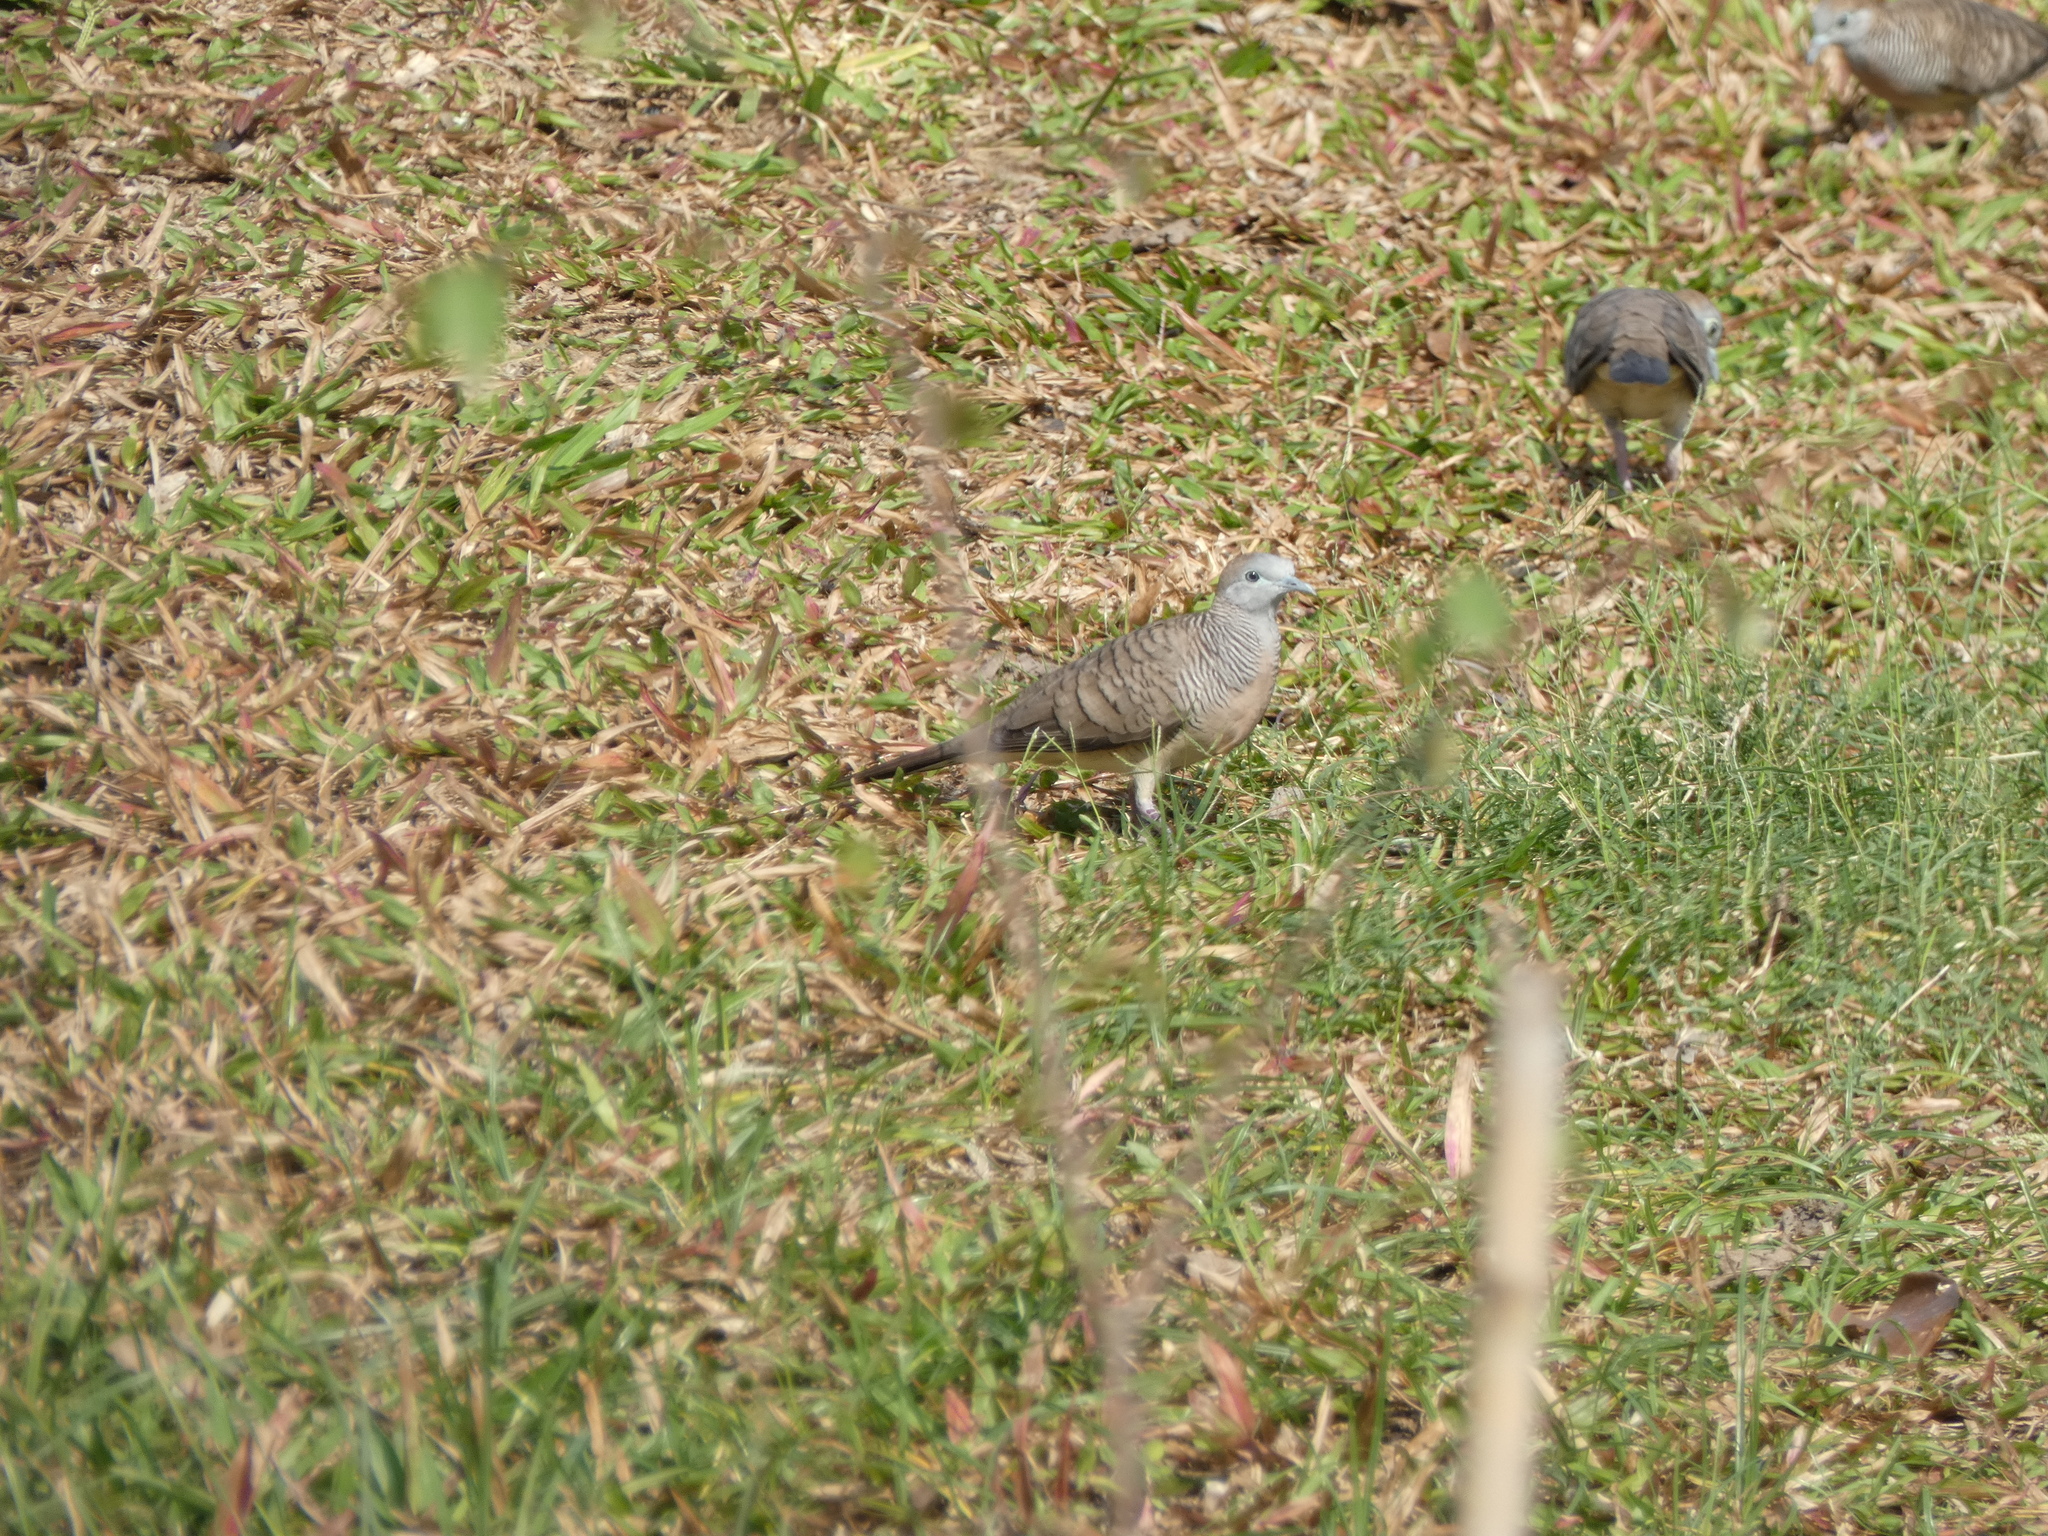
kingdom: Animalia
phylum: Chordata
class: Aves
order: Columbiformes
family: Columbidae
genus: Geopelia
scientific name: Geopelia striata
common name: Zebra dove
